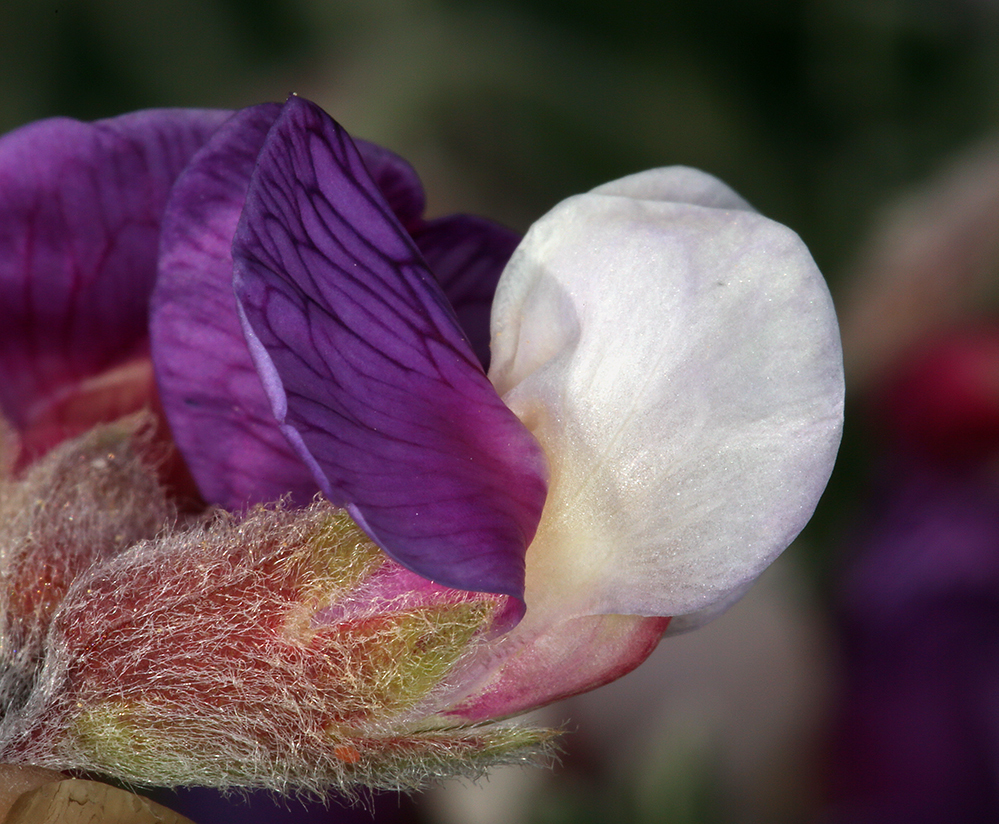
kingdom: Plantae
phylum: Tracheophyta
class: Magnoliopsida
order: Fabales
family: Fabaceae
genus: Lathyrus
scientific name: Lathyrus littoralis
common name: Dune sweet pea
